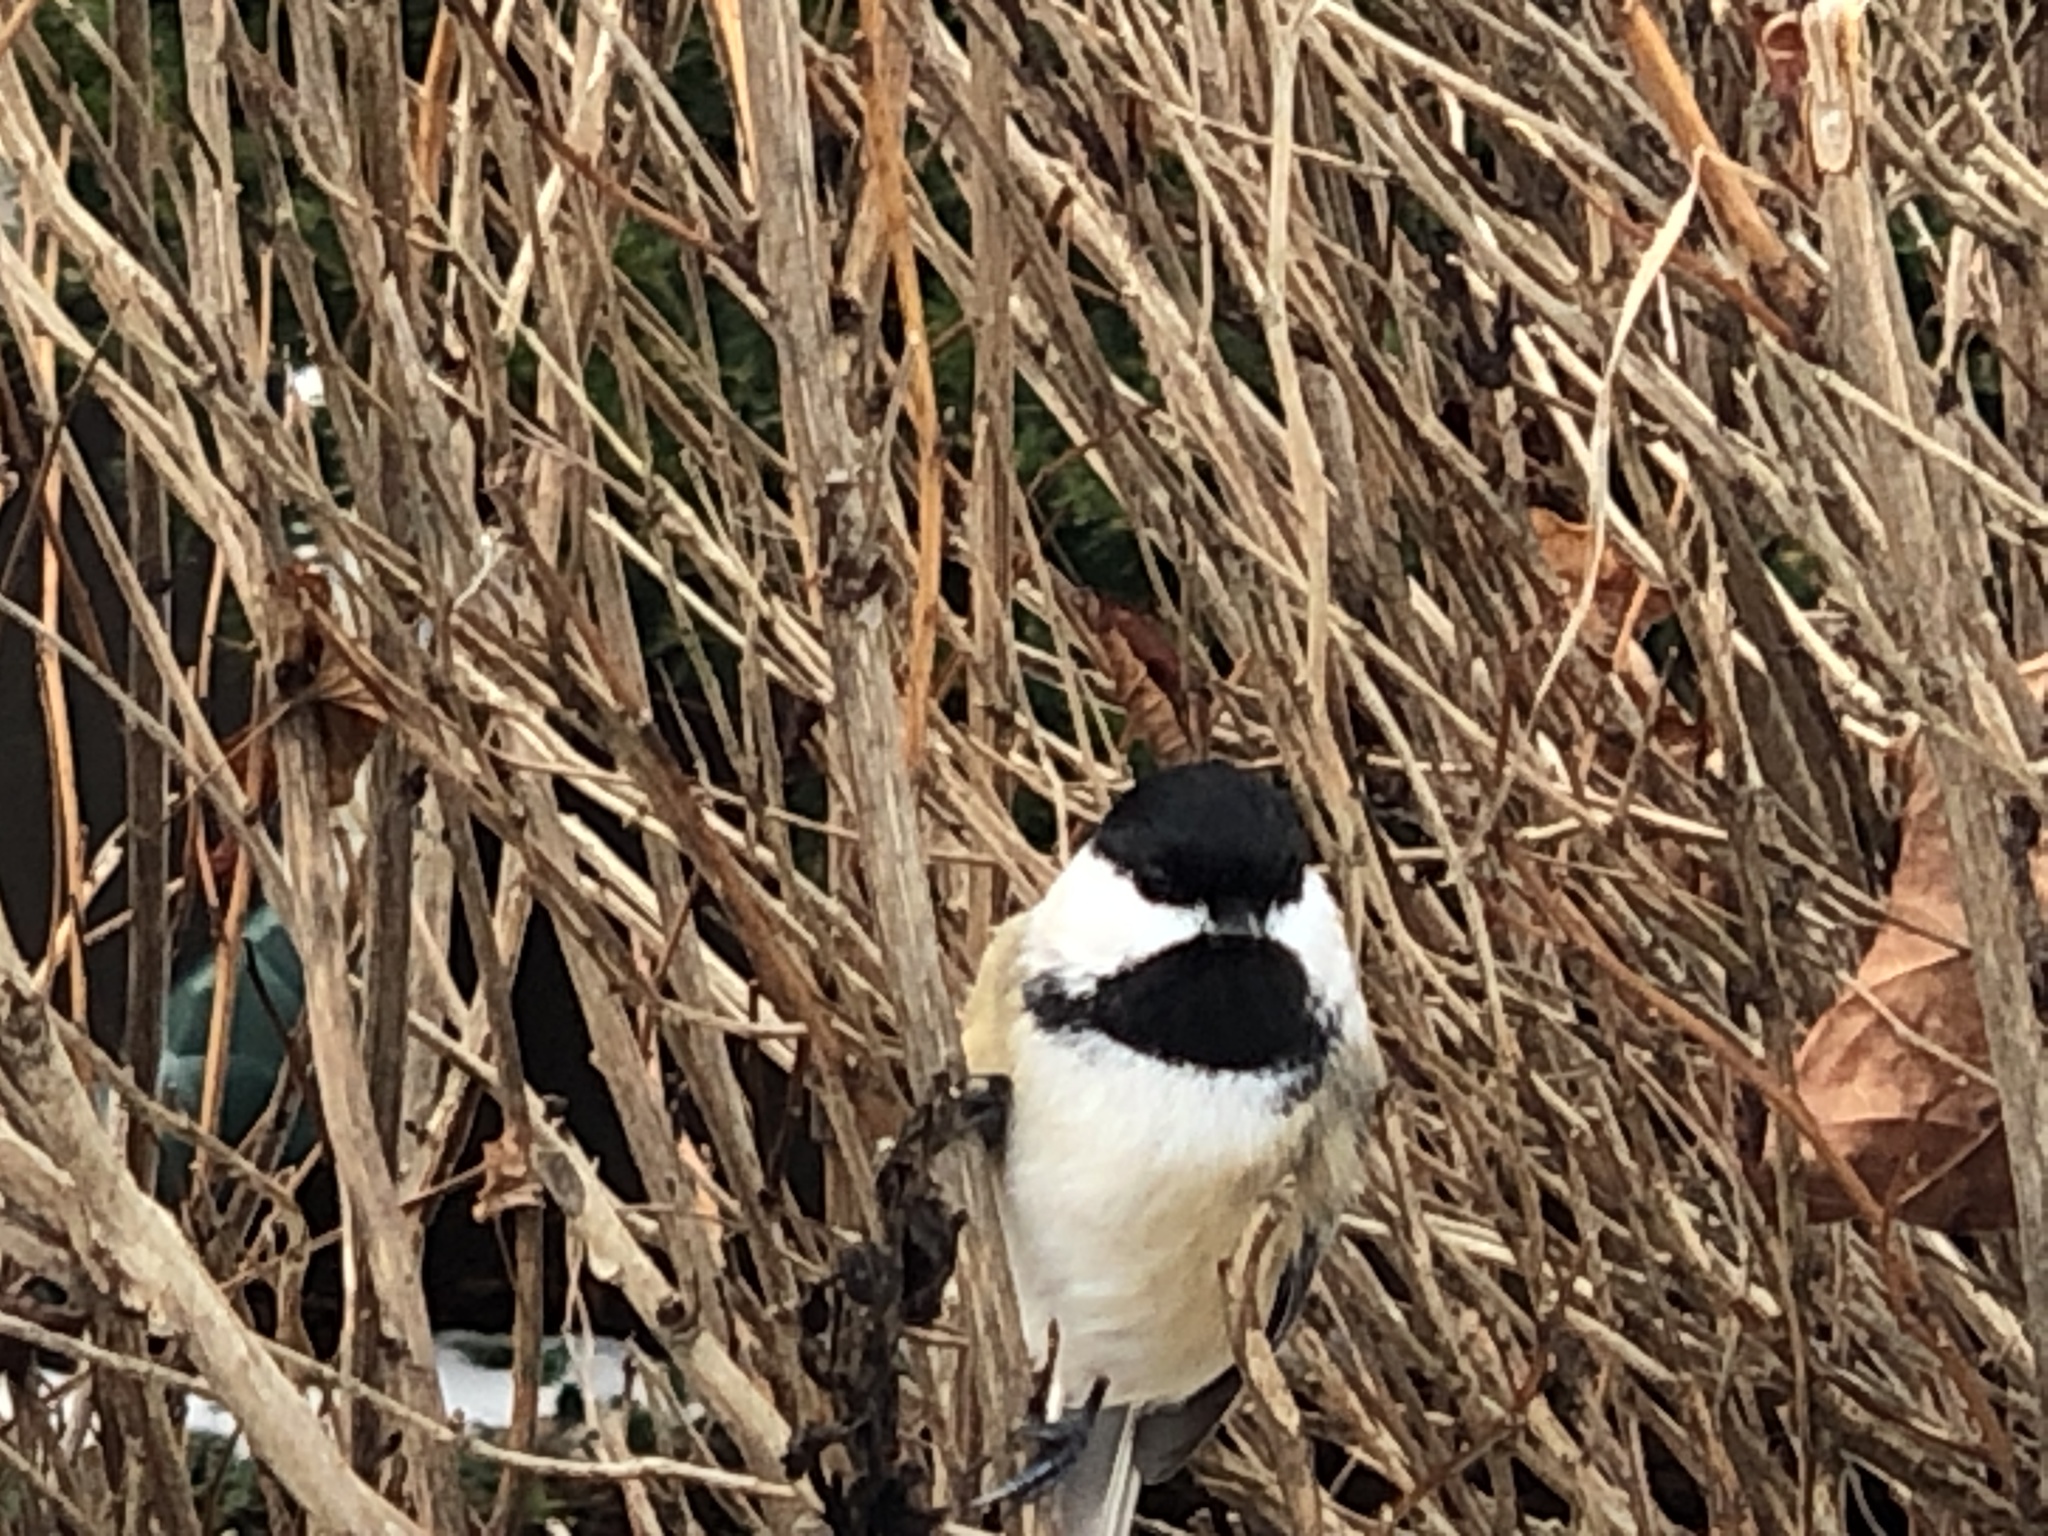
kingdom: Animalia
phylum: Chordata
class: Aves
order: Passeriformes
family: Paridae
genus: Poecile
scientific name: Poecile atricapillus
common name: Black-capped chickadee
